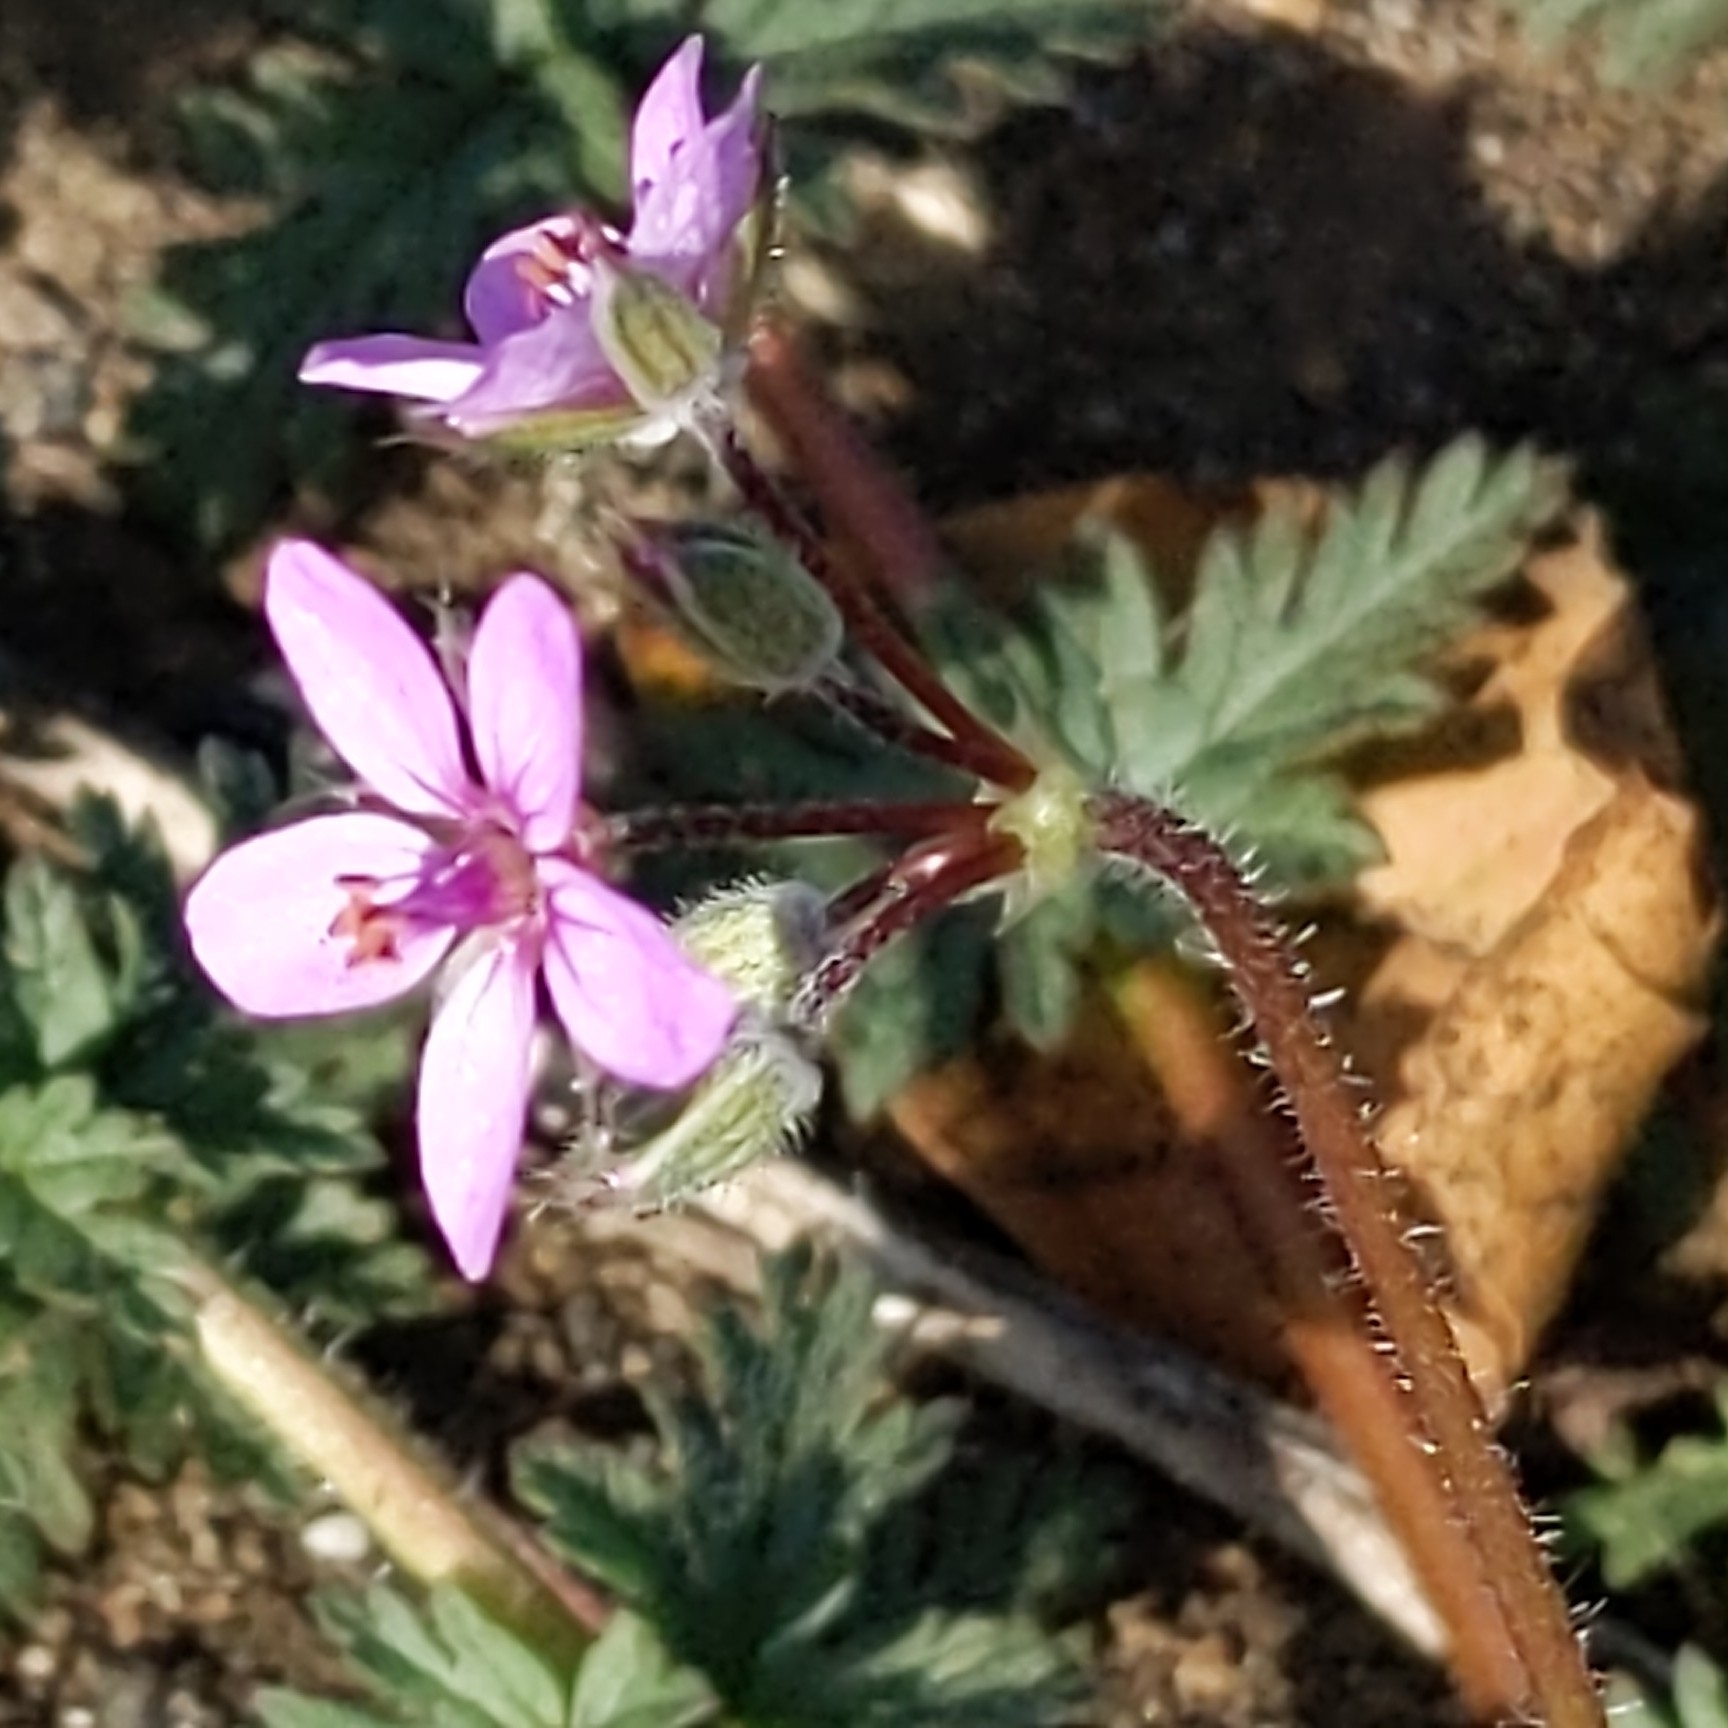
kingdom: Plantae
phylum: Tracheophyta
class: Magnoliopsida
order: Geraniales
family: Geraniaceae
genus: Erodium
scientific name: Erodium cicutarium
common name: Common stork's-bill
